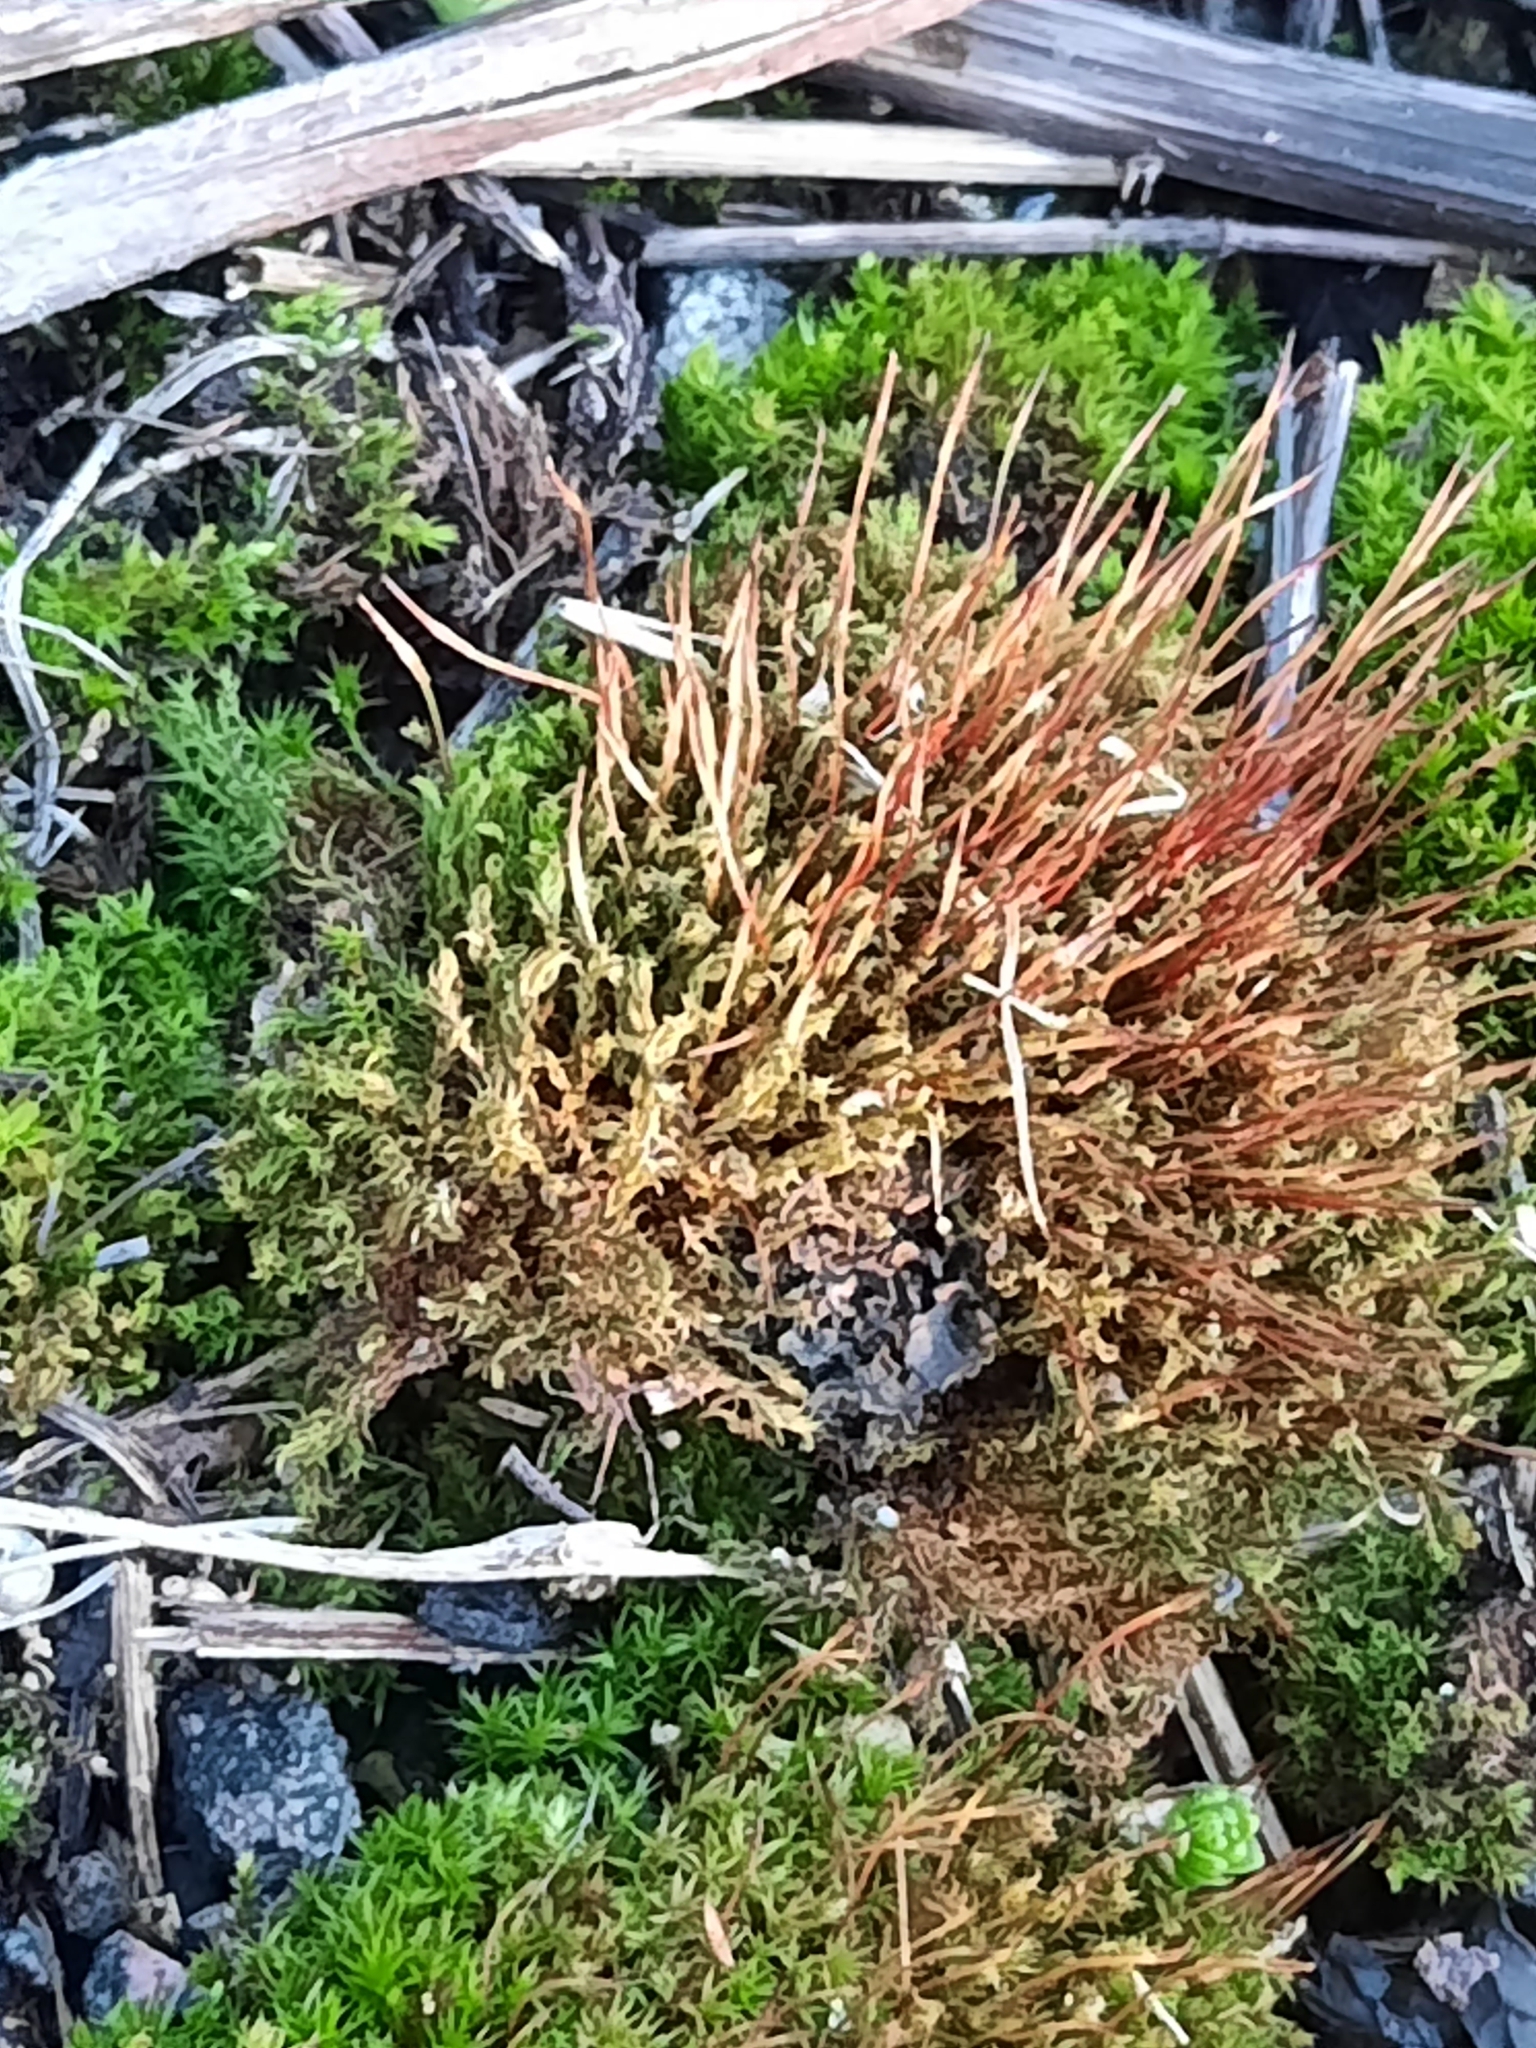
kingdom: Plantae
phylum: Bryophyta
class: Bryopsida
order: Dicranales
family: Ditrichaceae
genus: Ceratodon
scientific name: Ceratodon purpureus
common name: Redshank
